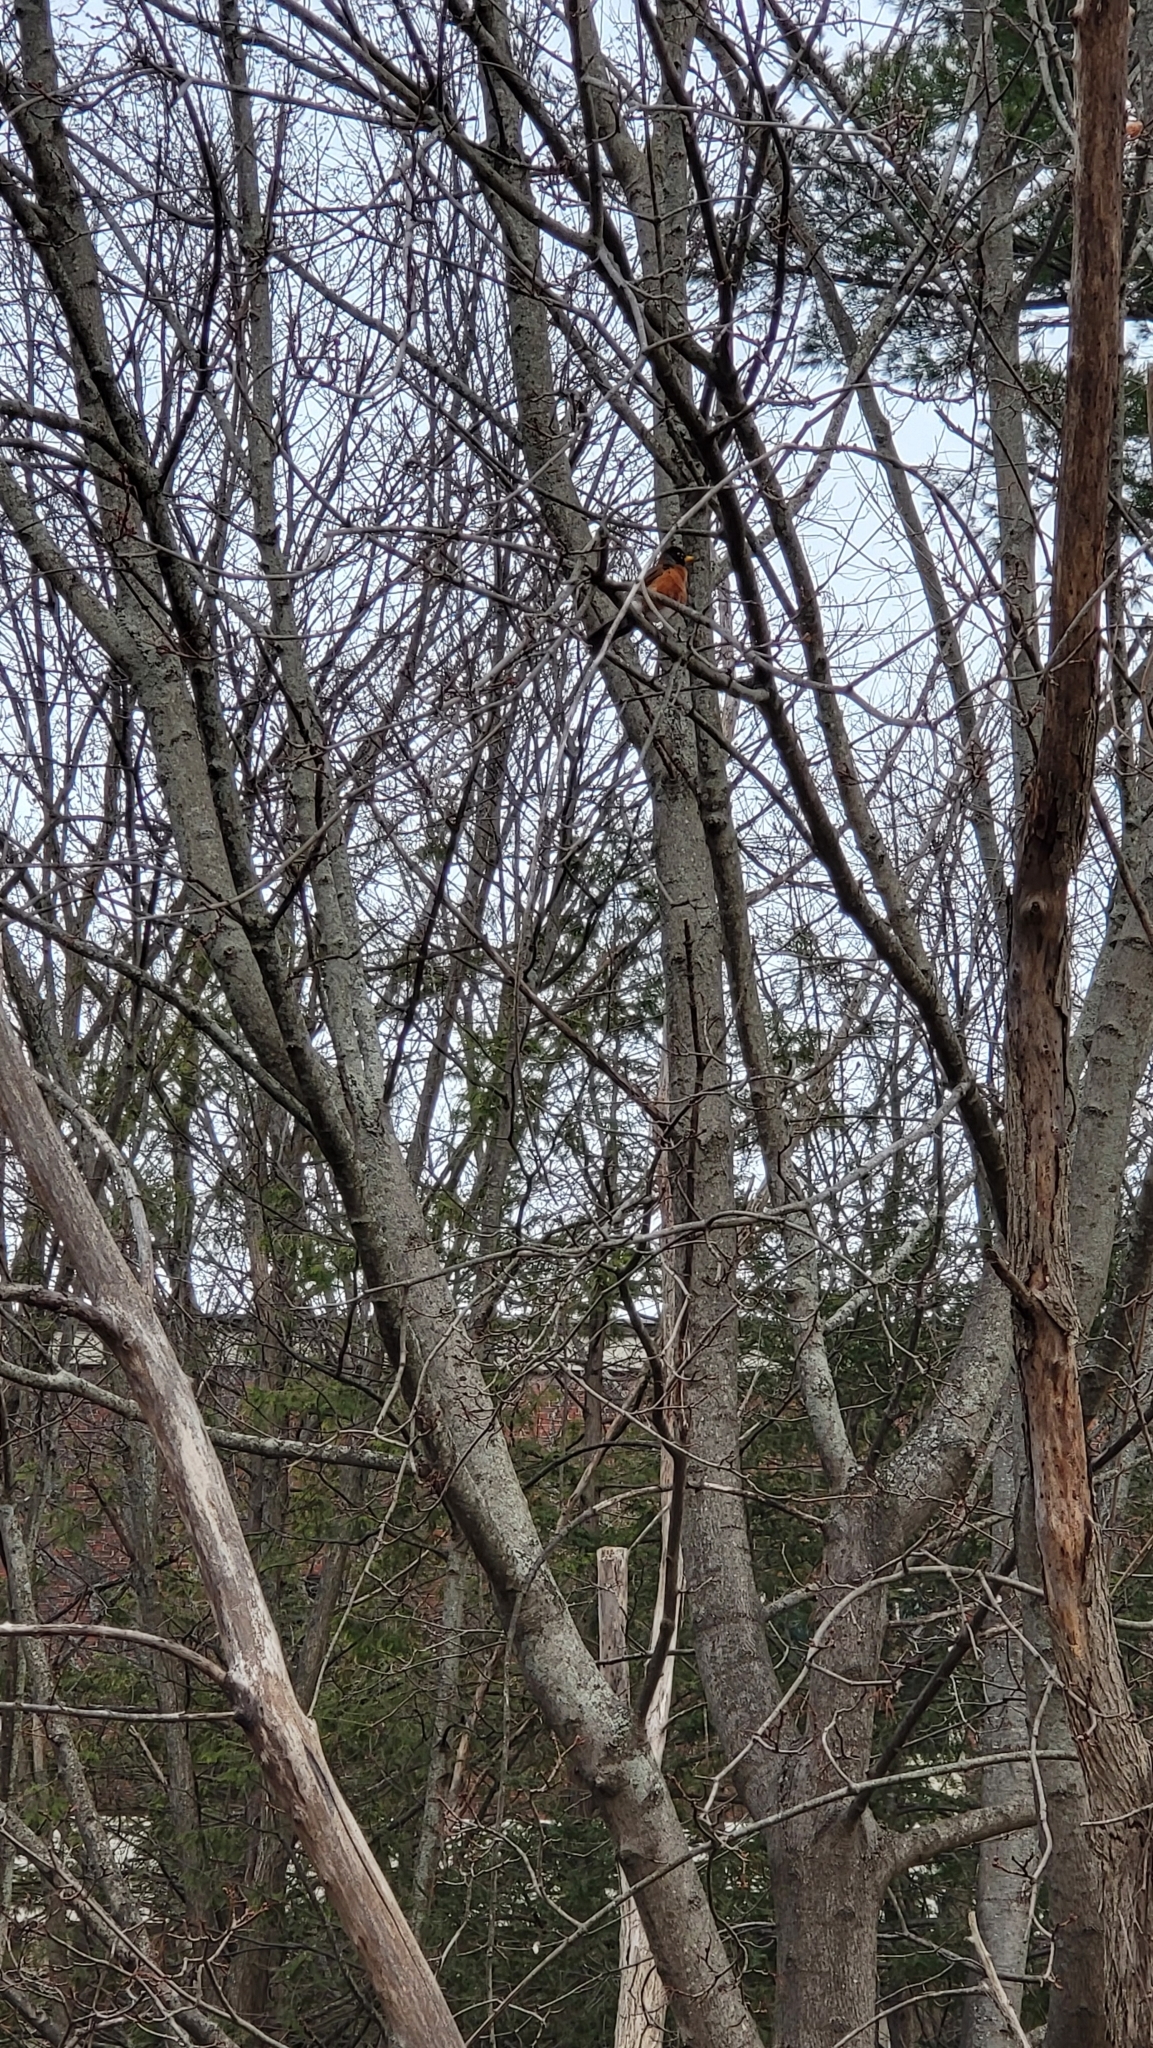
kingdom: Animalia
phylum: Chordata
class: Aves
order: Passeriformes
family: Turdidae
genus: Turdus
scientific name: Turdus migratorius
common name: American robin
